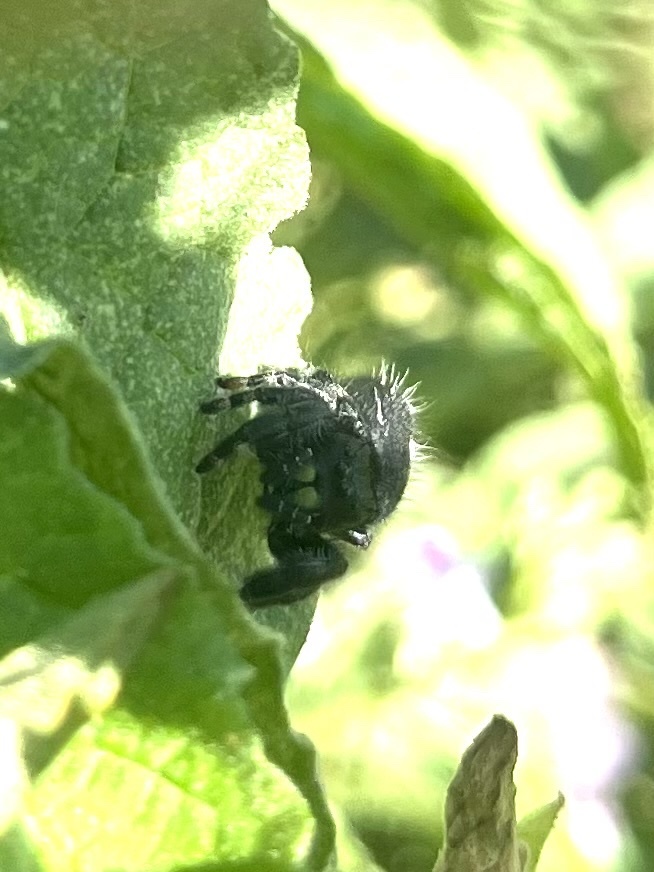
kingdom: Animalia
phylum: Arthropoda
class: Arachnida
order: Araneae
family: Salticidae
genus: Phidippus
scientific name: Phidippus audax
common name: Bold jumper
